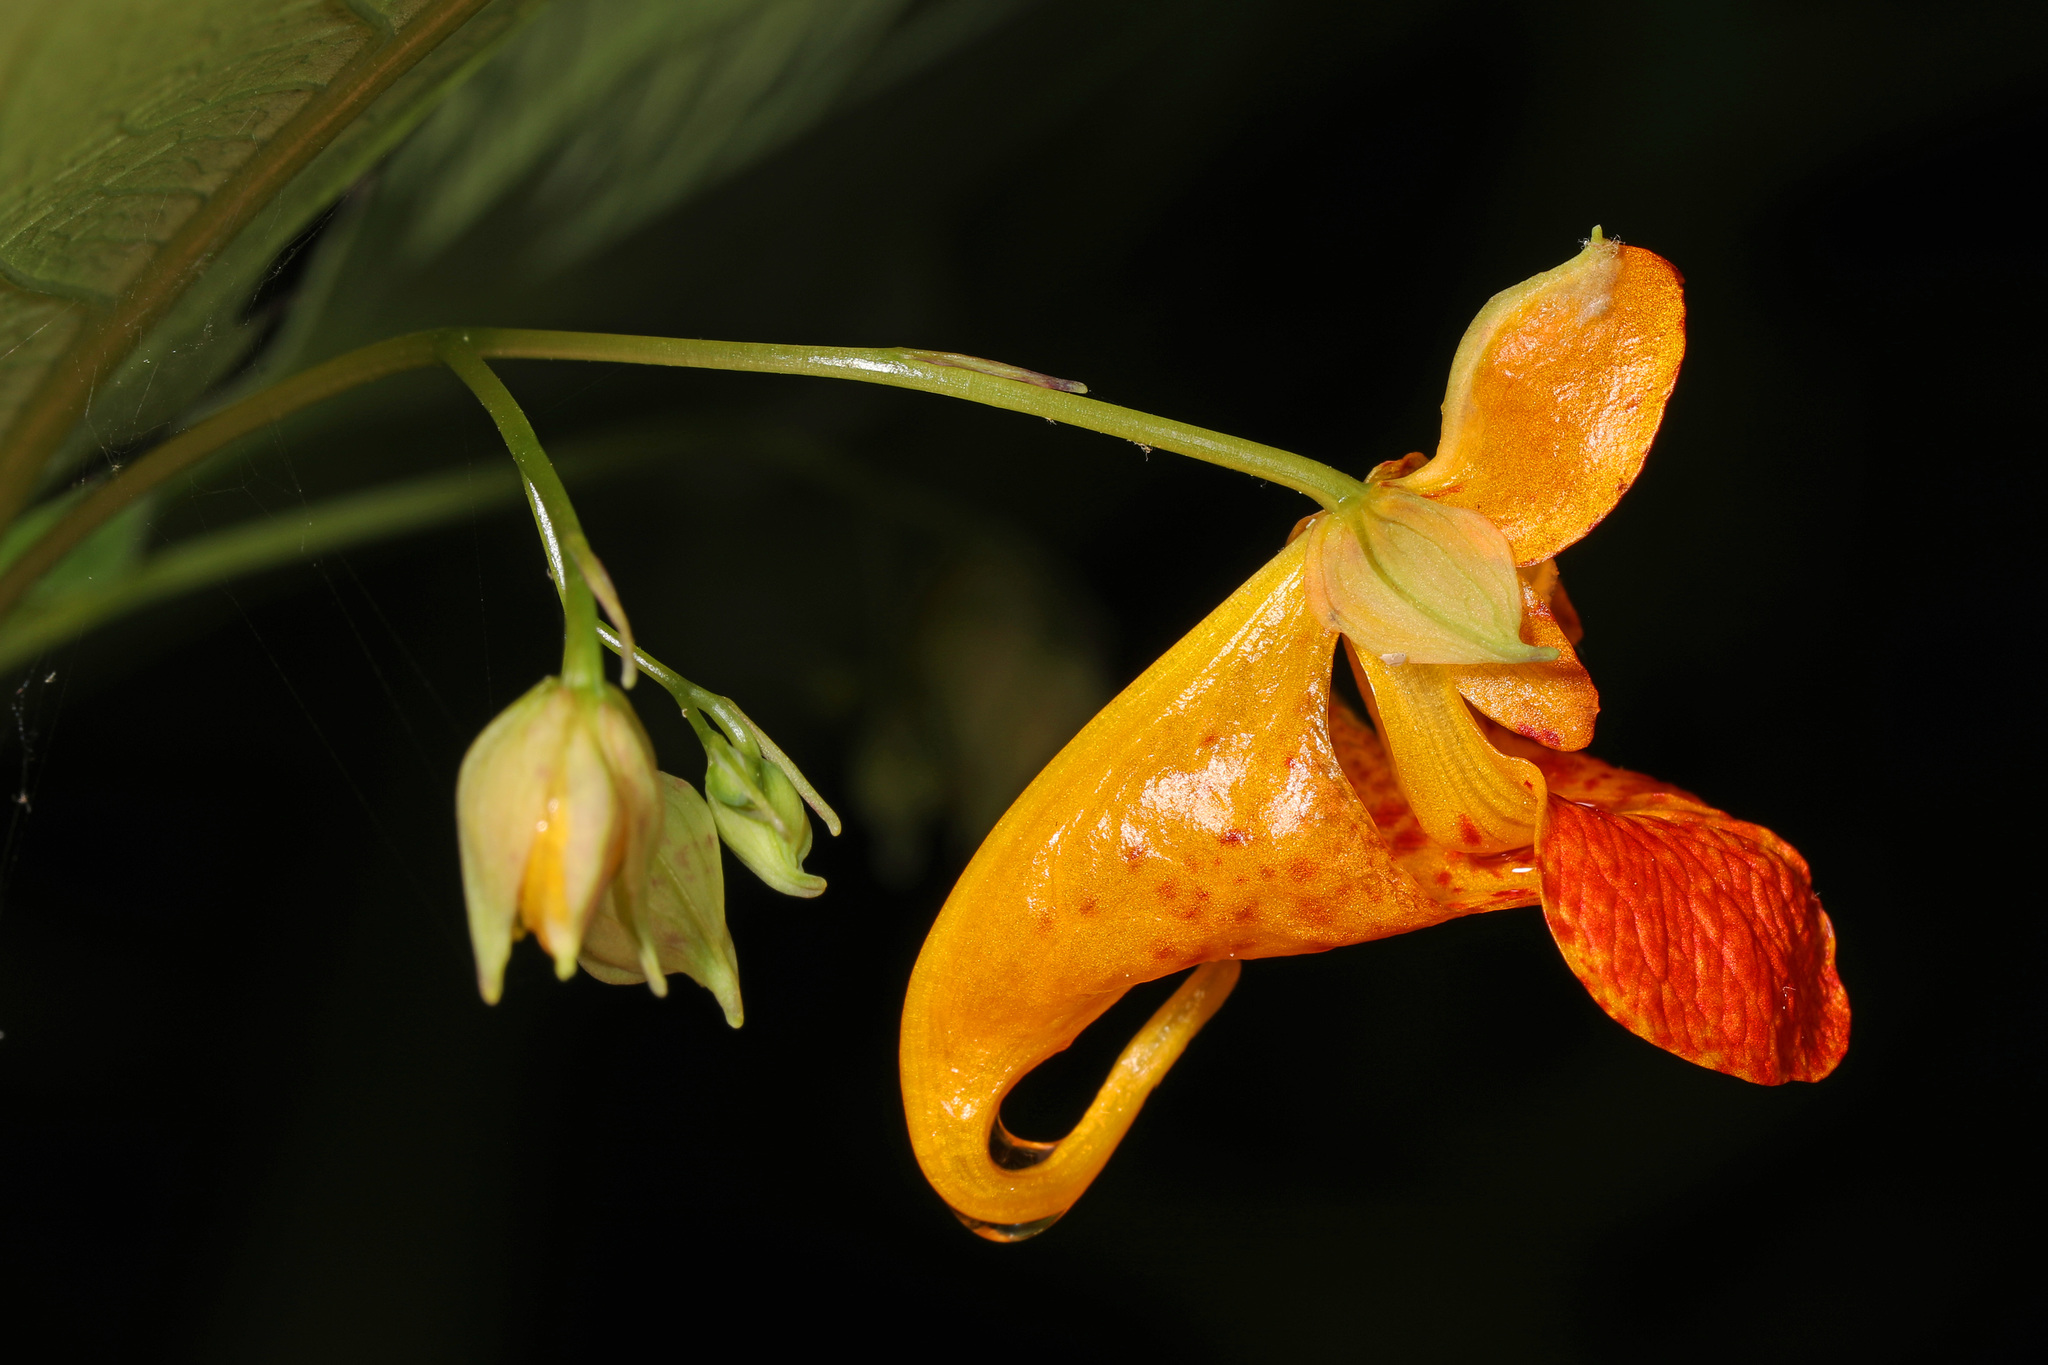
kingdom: Plantae
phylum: Tracheophyta
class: Magnoliopsida
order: Ericales
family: Balsaminaceae
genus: Impatiens
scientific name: Impatiens capensis
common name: Orange balsam
